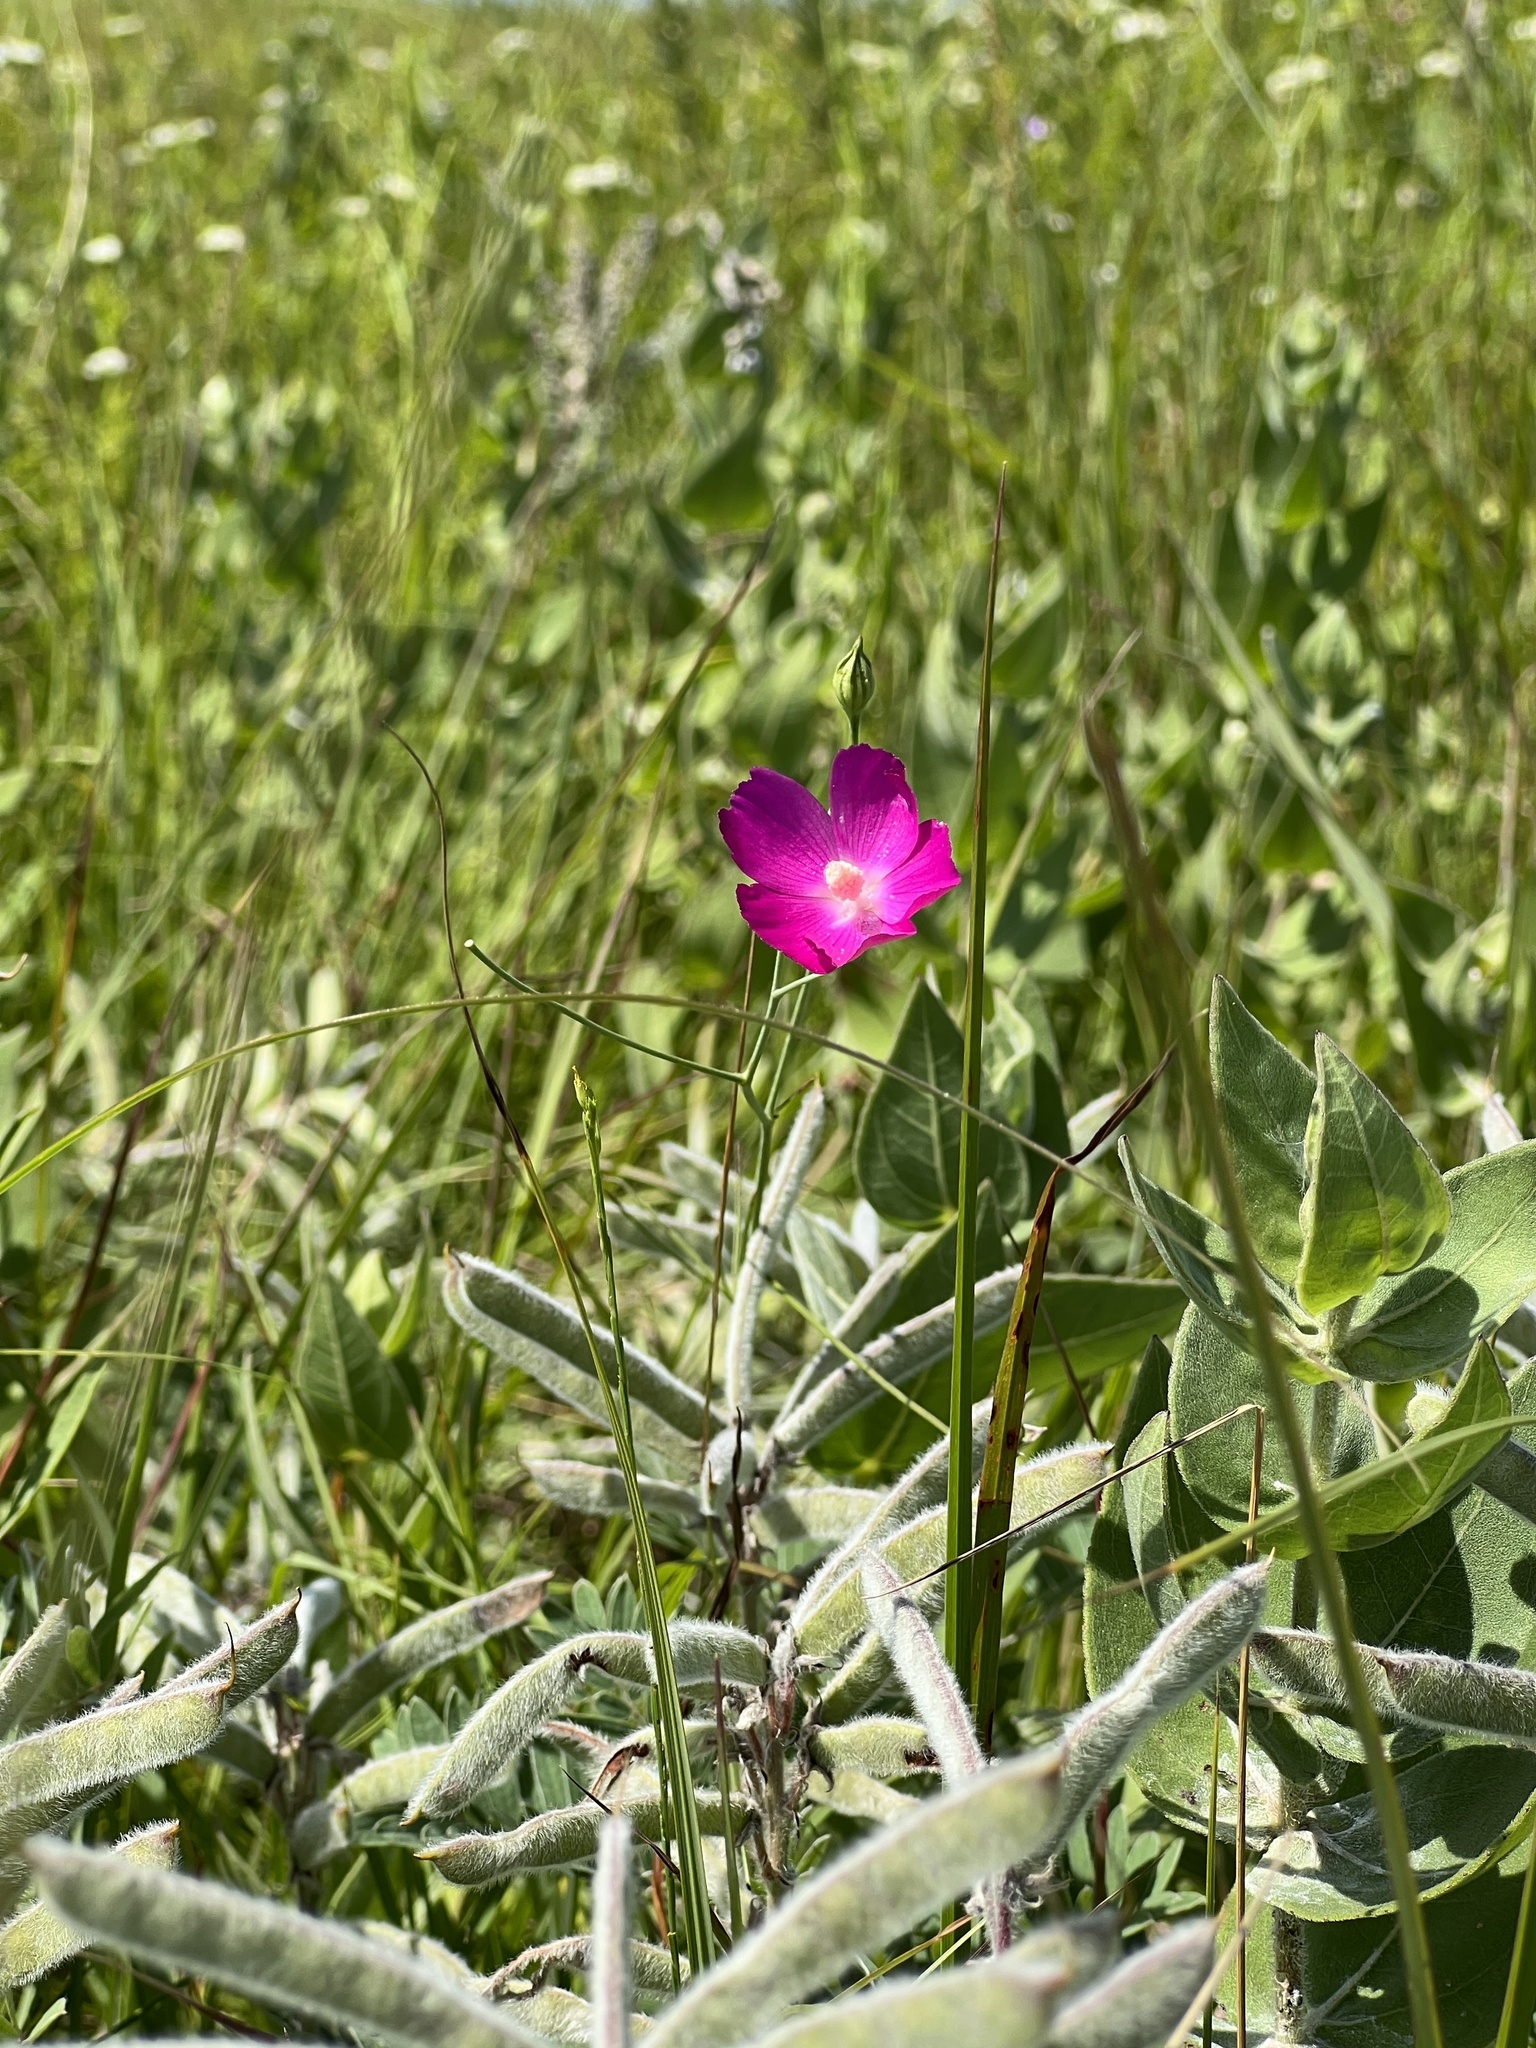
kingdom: Plantae
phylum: Tracheophyta
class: Magnoliopsida
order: Malvales
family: Malvaceae
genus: Callirhoe
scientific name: Callirhoe digitata
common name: Finger poppy-mallow
